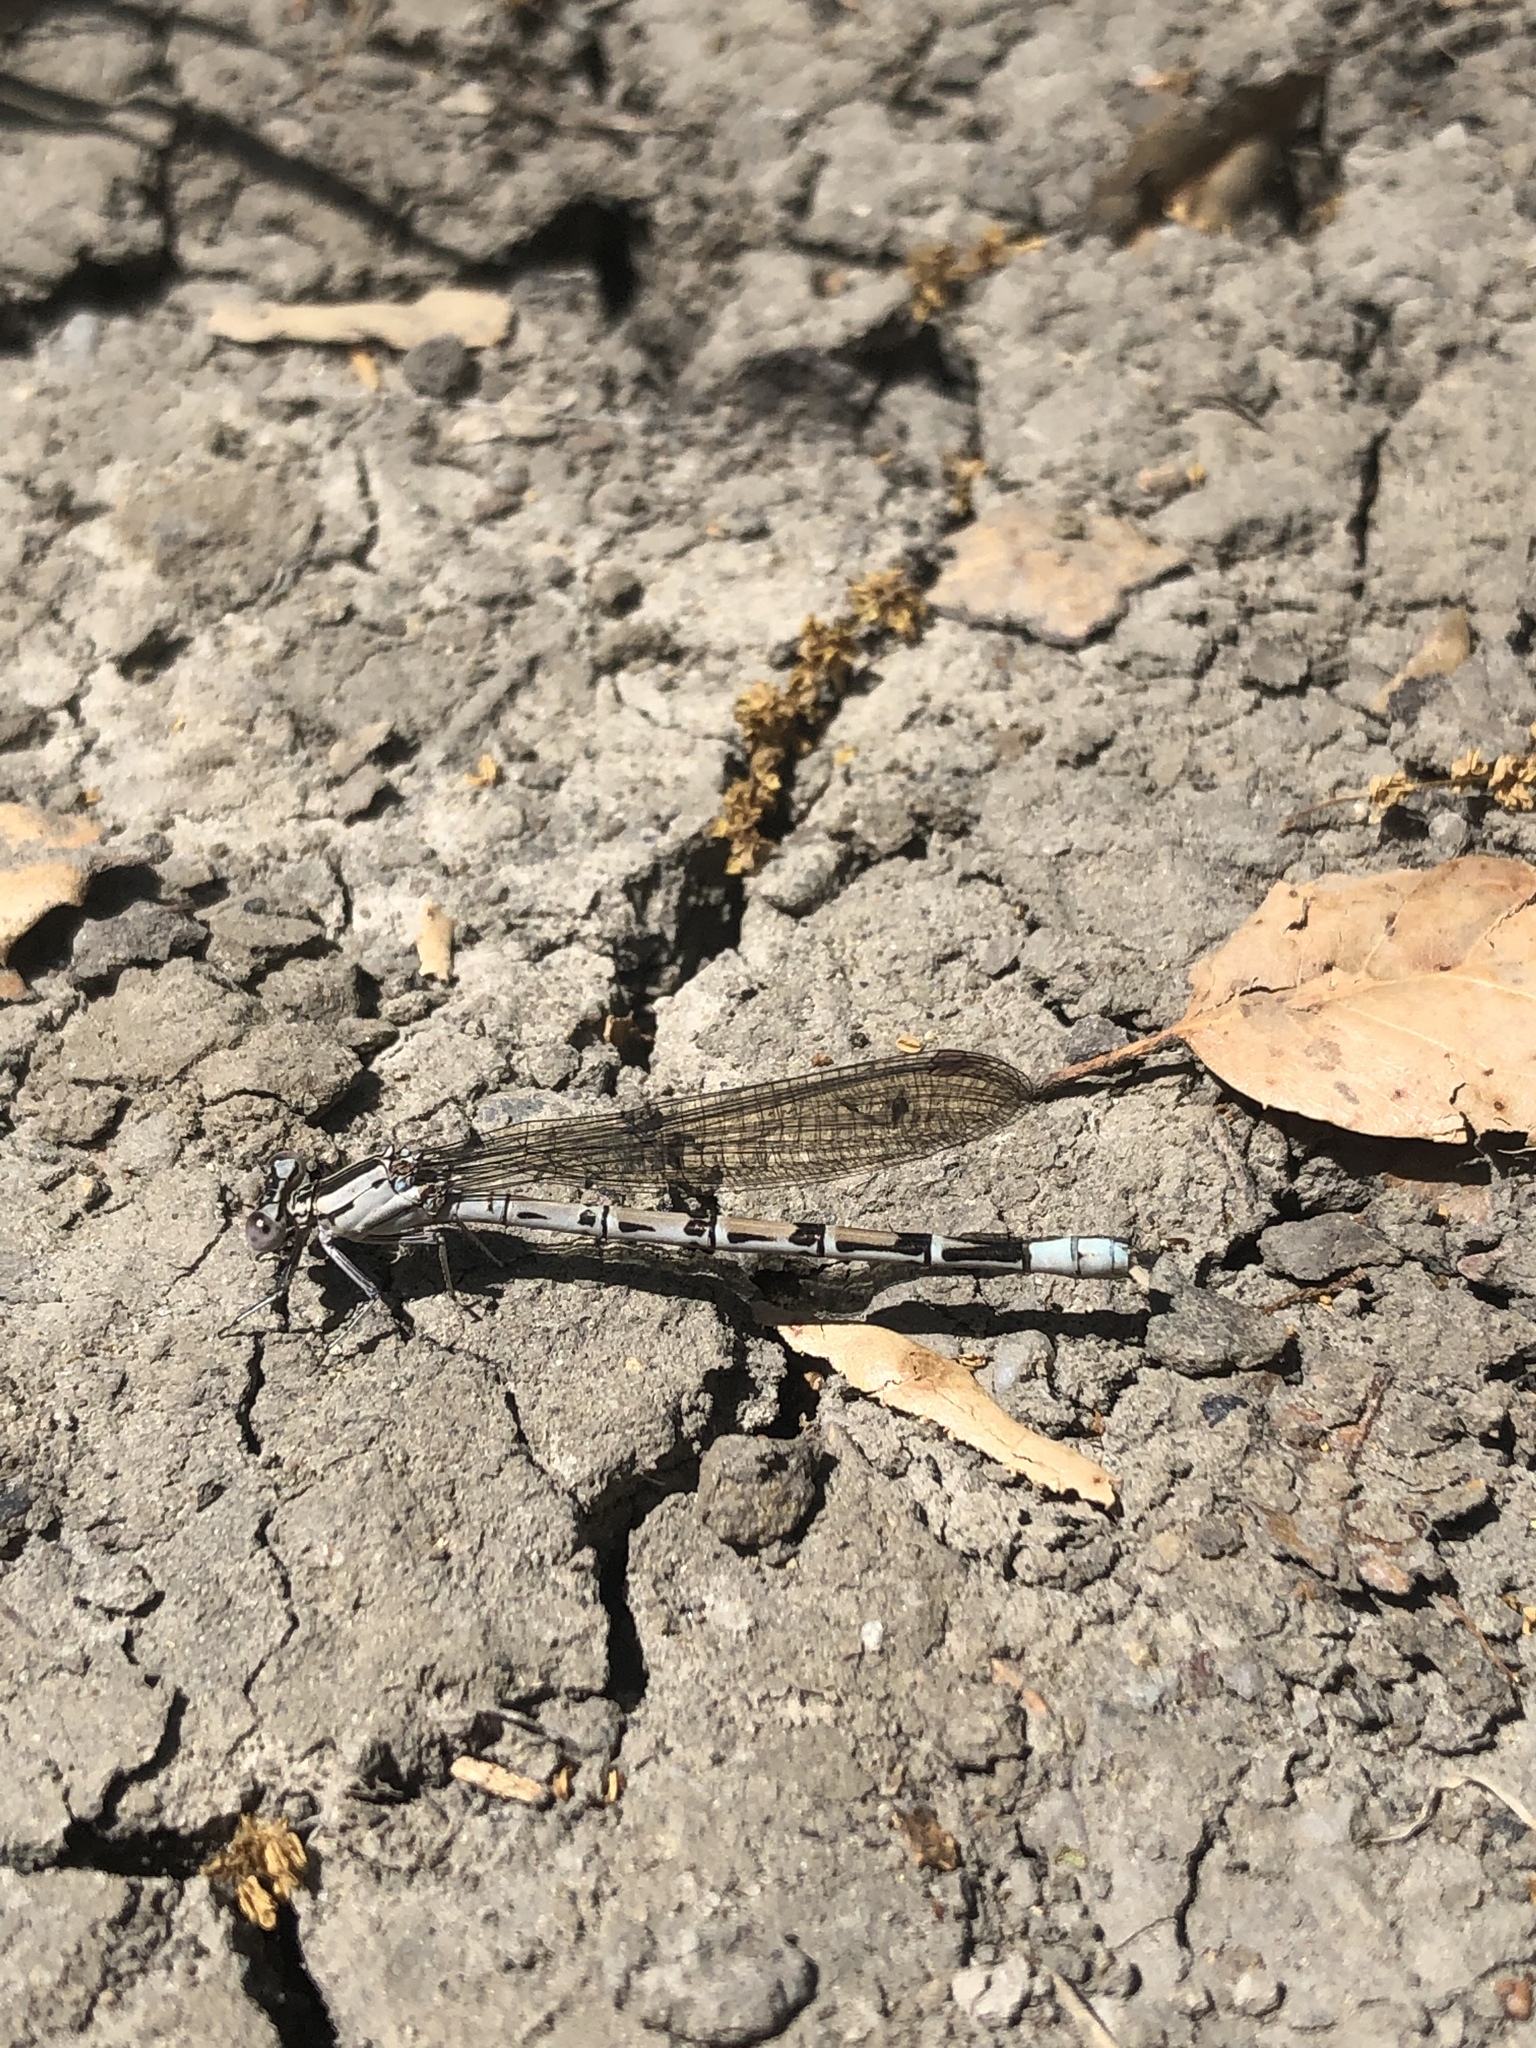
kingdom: Animalia
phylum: Arthropoda
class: Insecta
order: Odonata
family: Coenagrionidae
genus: Argia
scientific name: Argia vivida
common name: Vivid dancer
